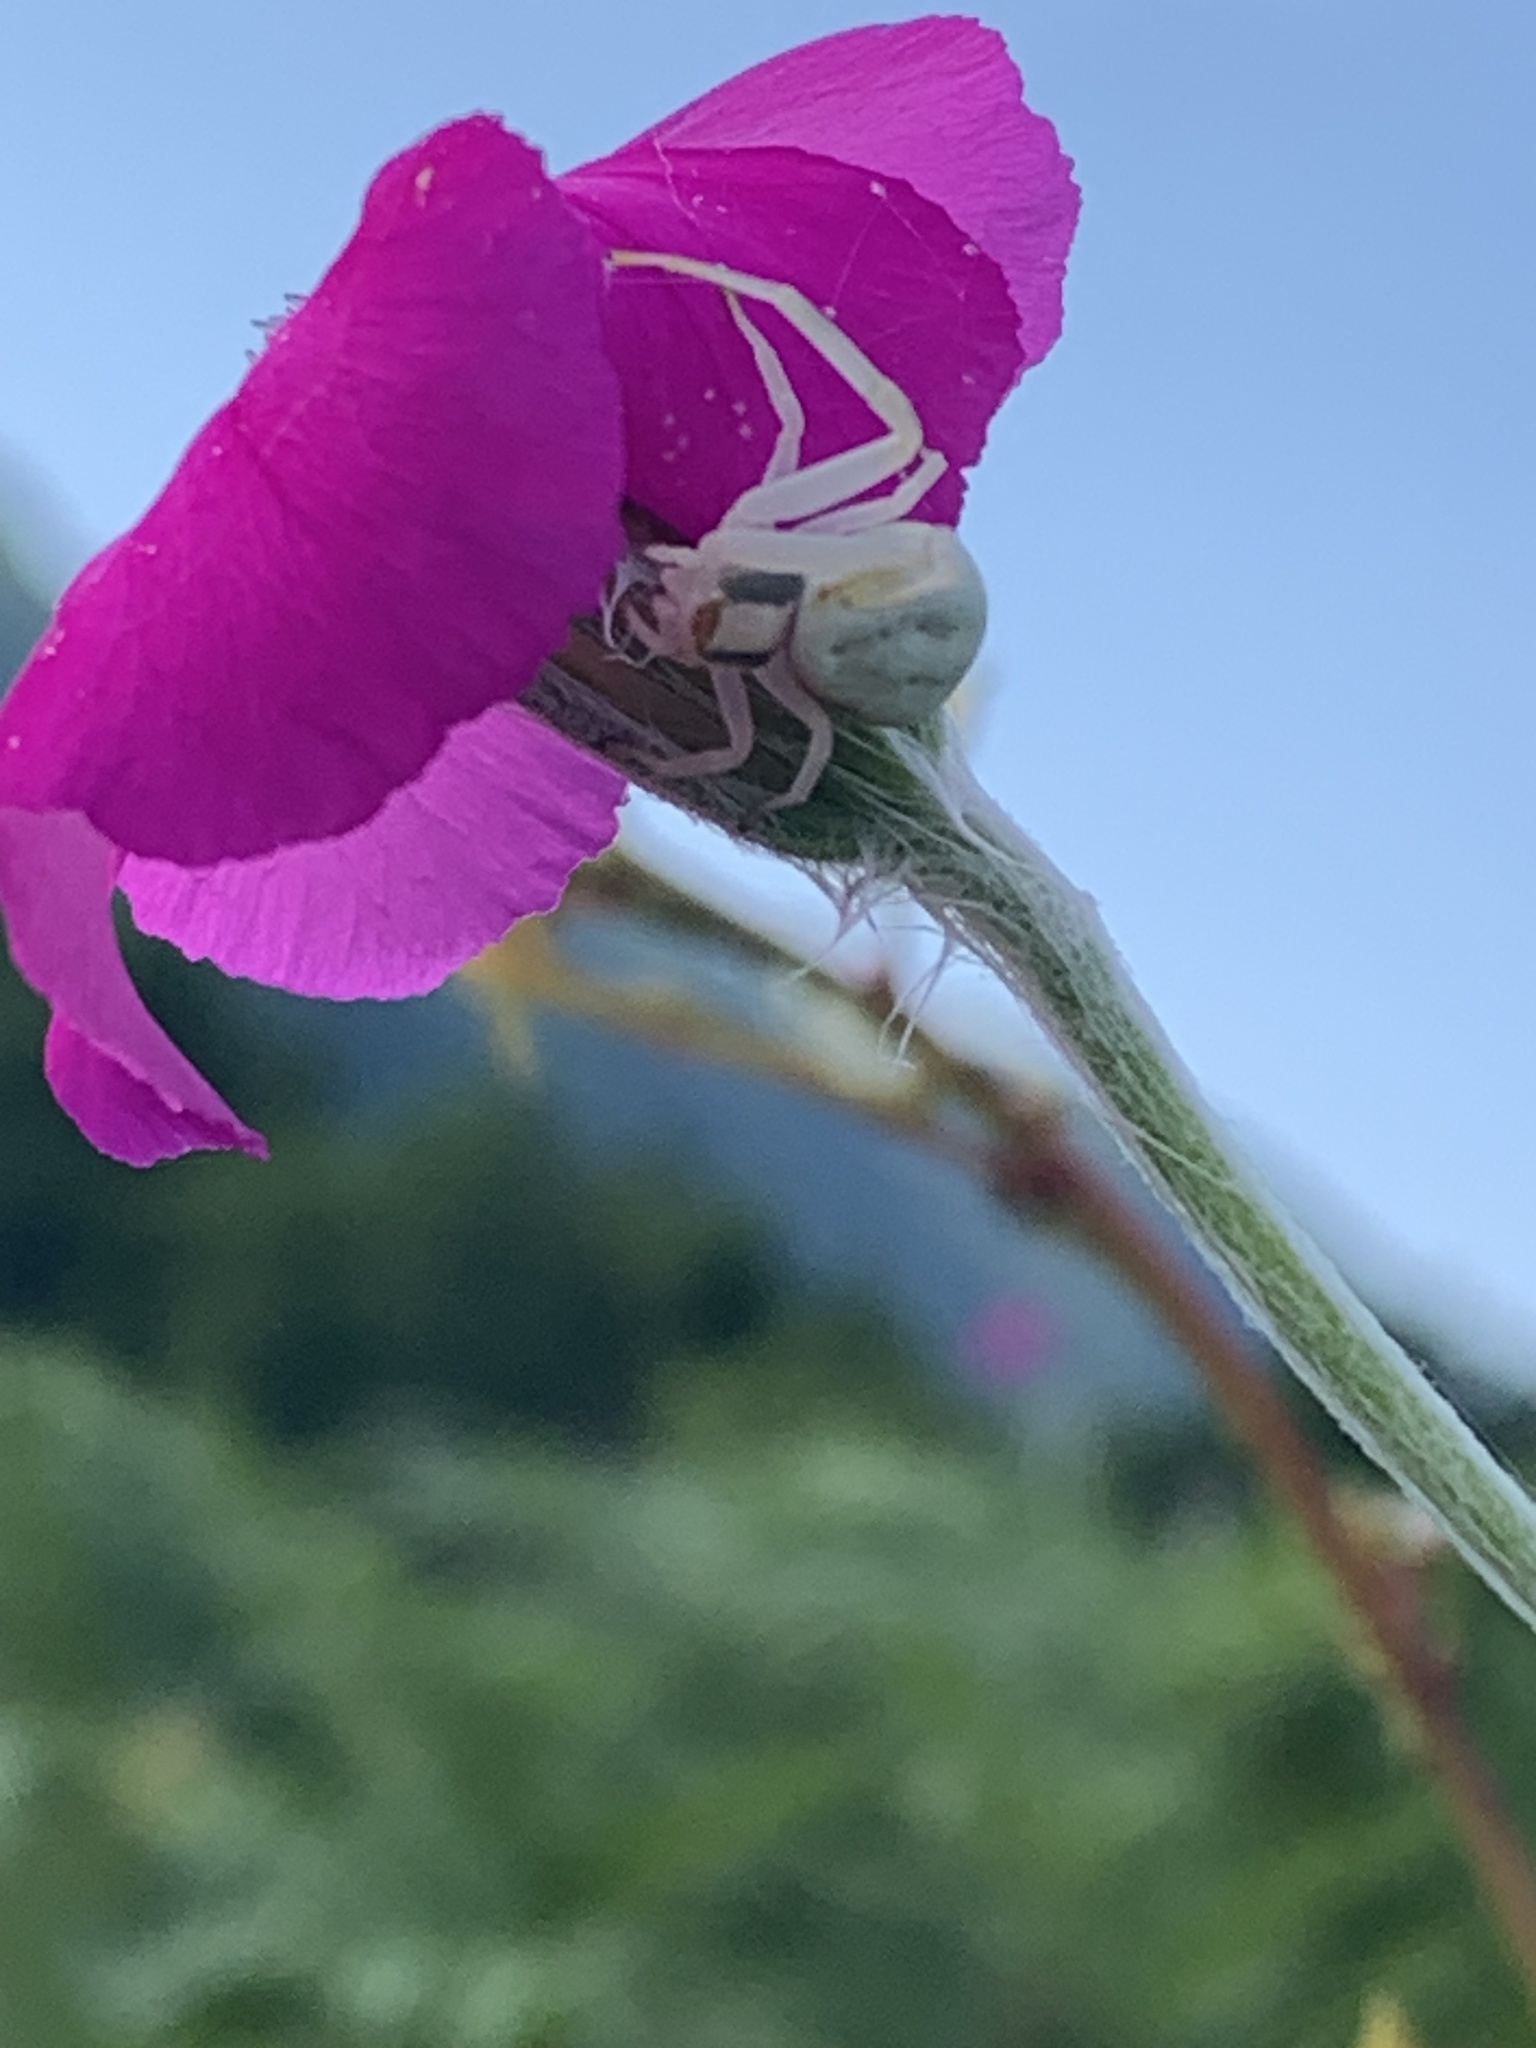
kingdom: Animalia
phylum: Arthropoda
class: Arachnida
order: Araneae
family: Thomisidae
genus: Misumena
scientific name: Misumena vatia
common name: Goldenrod crab spider
